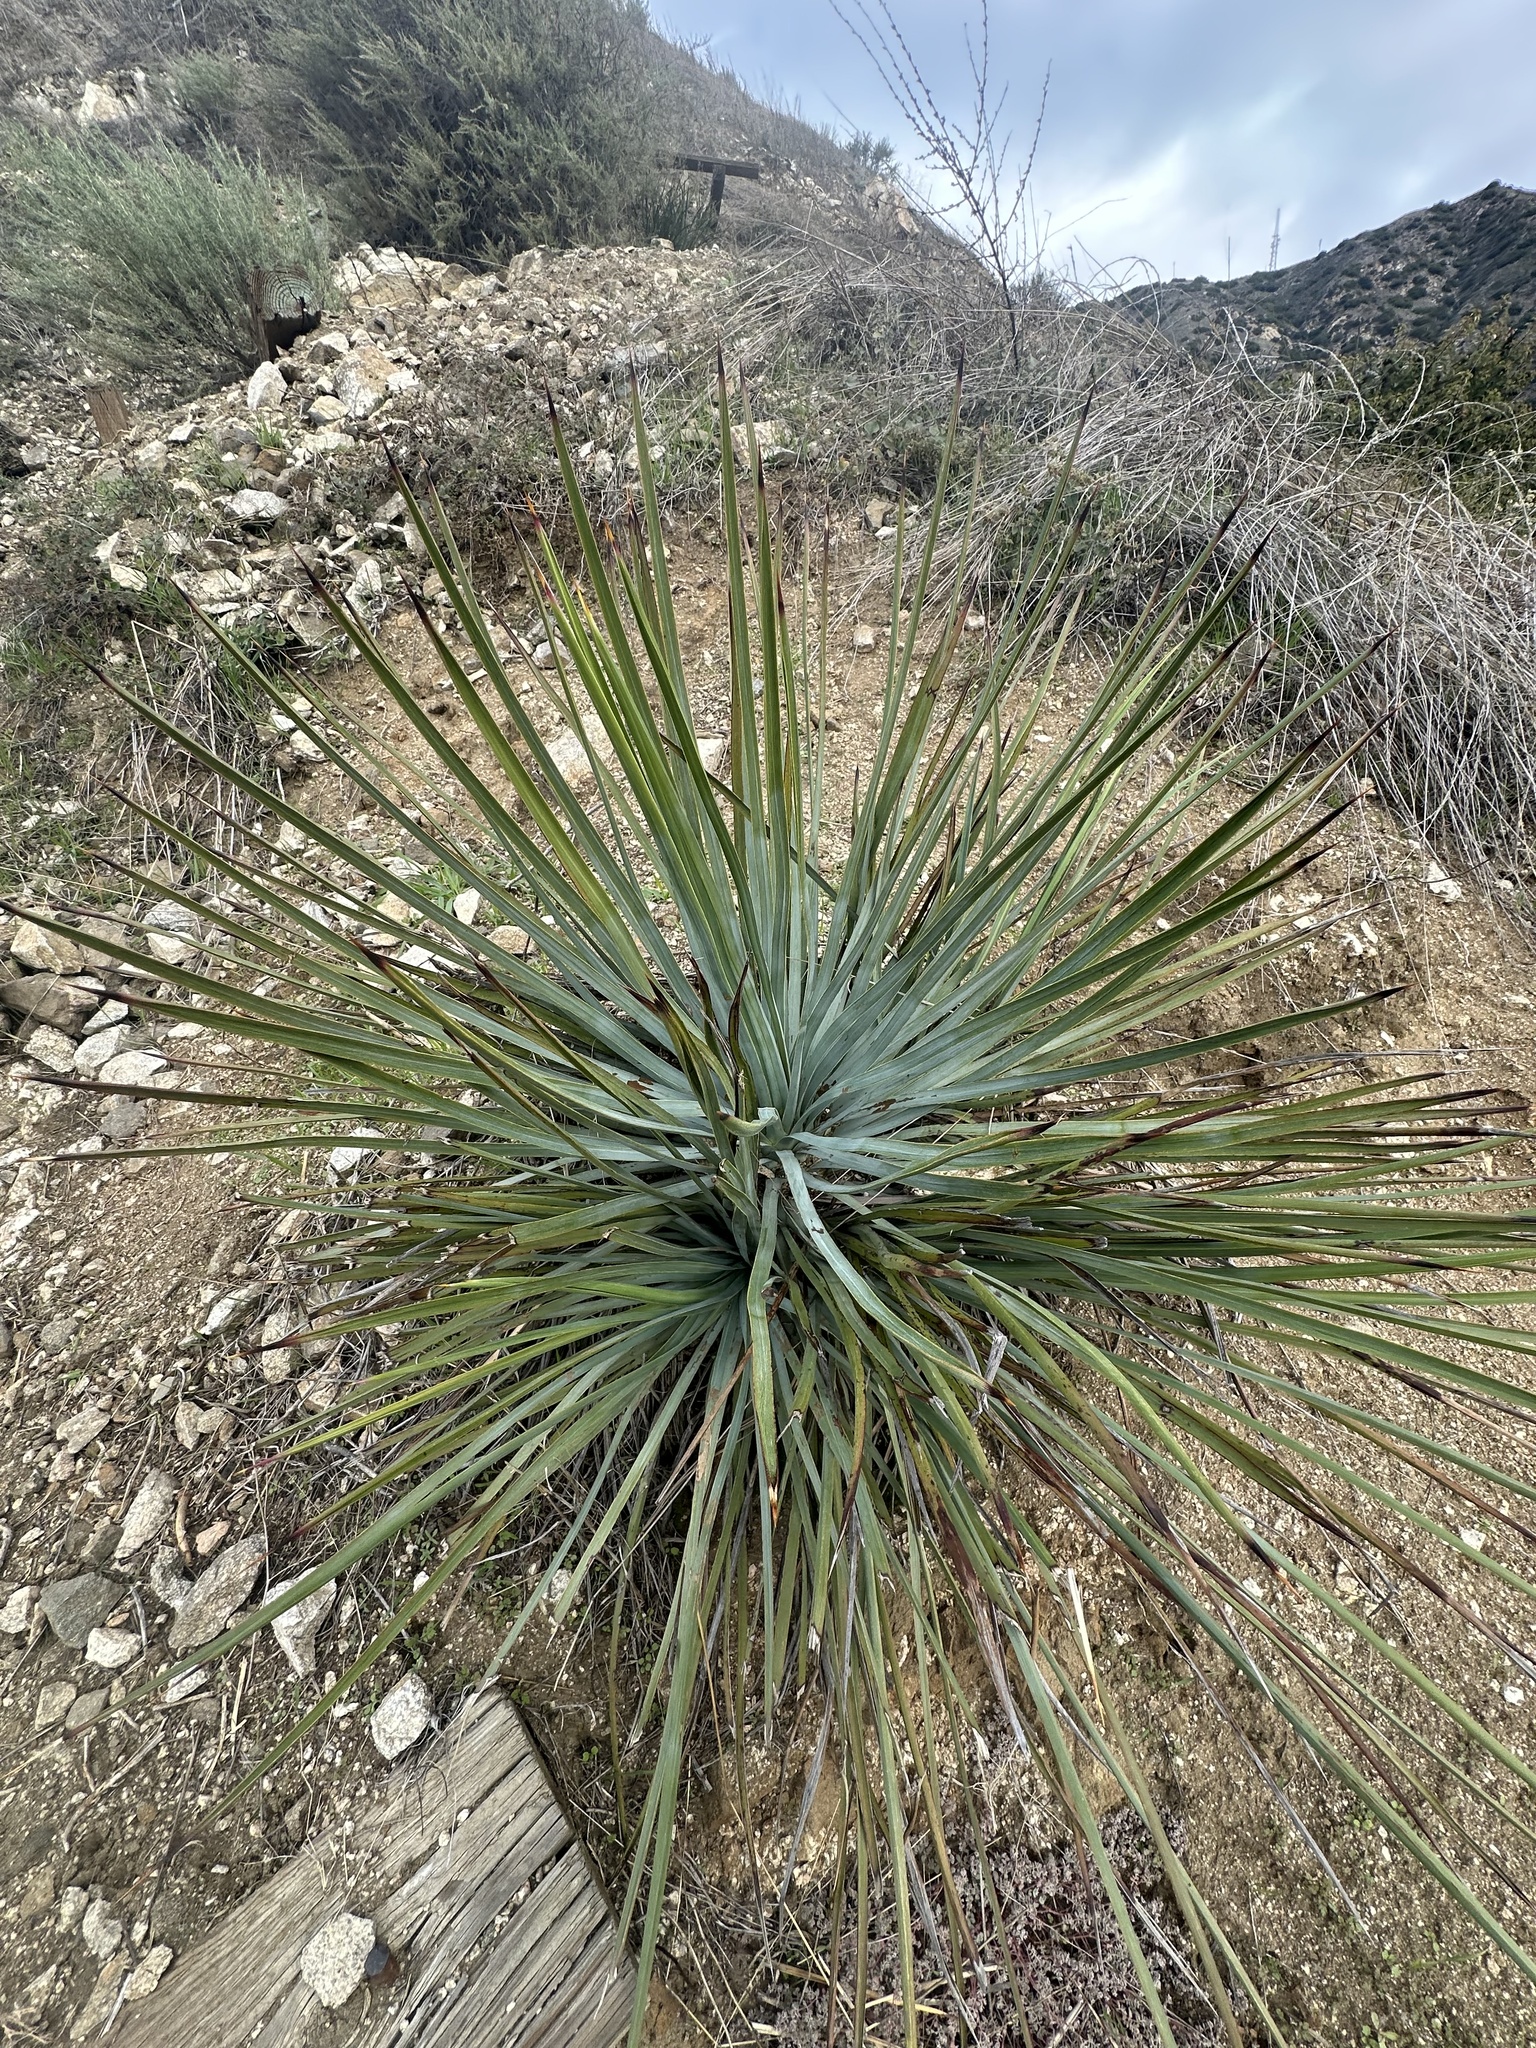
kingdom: Plantae
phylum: Tracheophyta
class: Liliopsida
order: Asparagales
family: Asparagaceae
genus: Hesperoyucca
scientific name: Hesperoyucca whipplei
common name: Our lord's-candle
